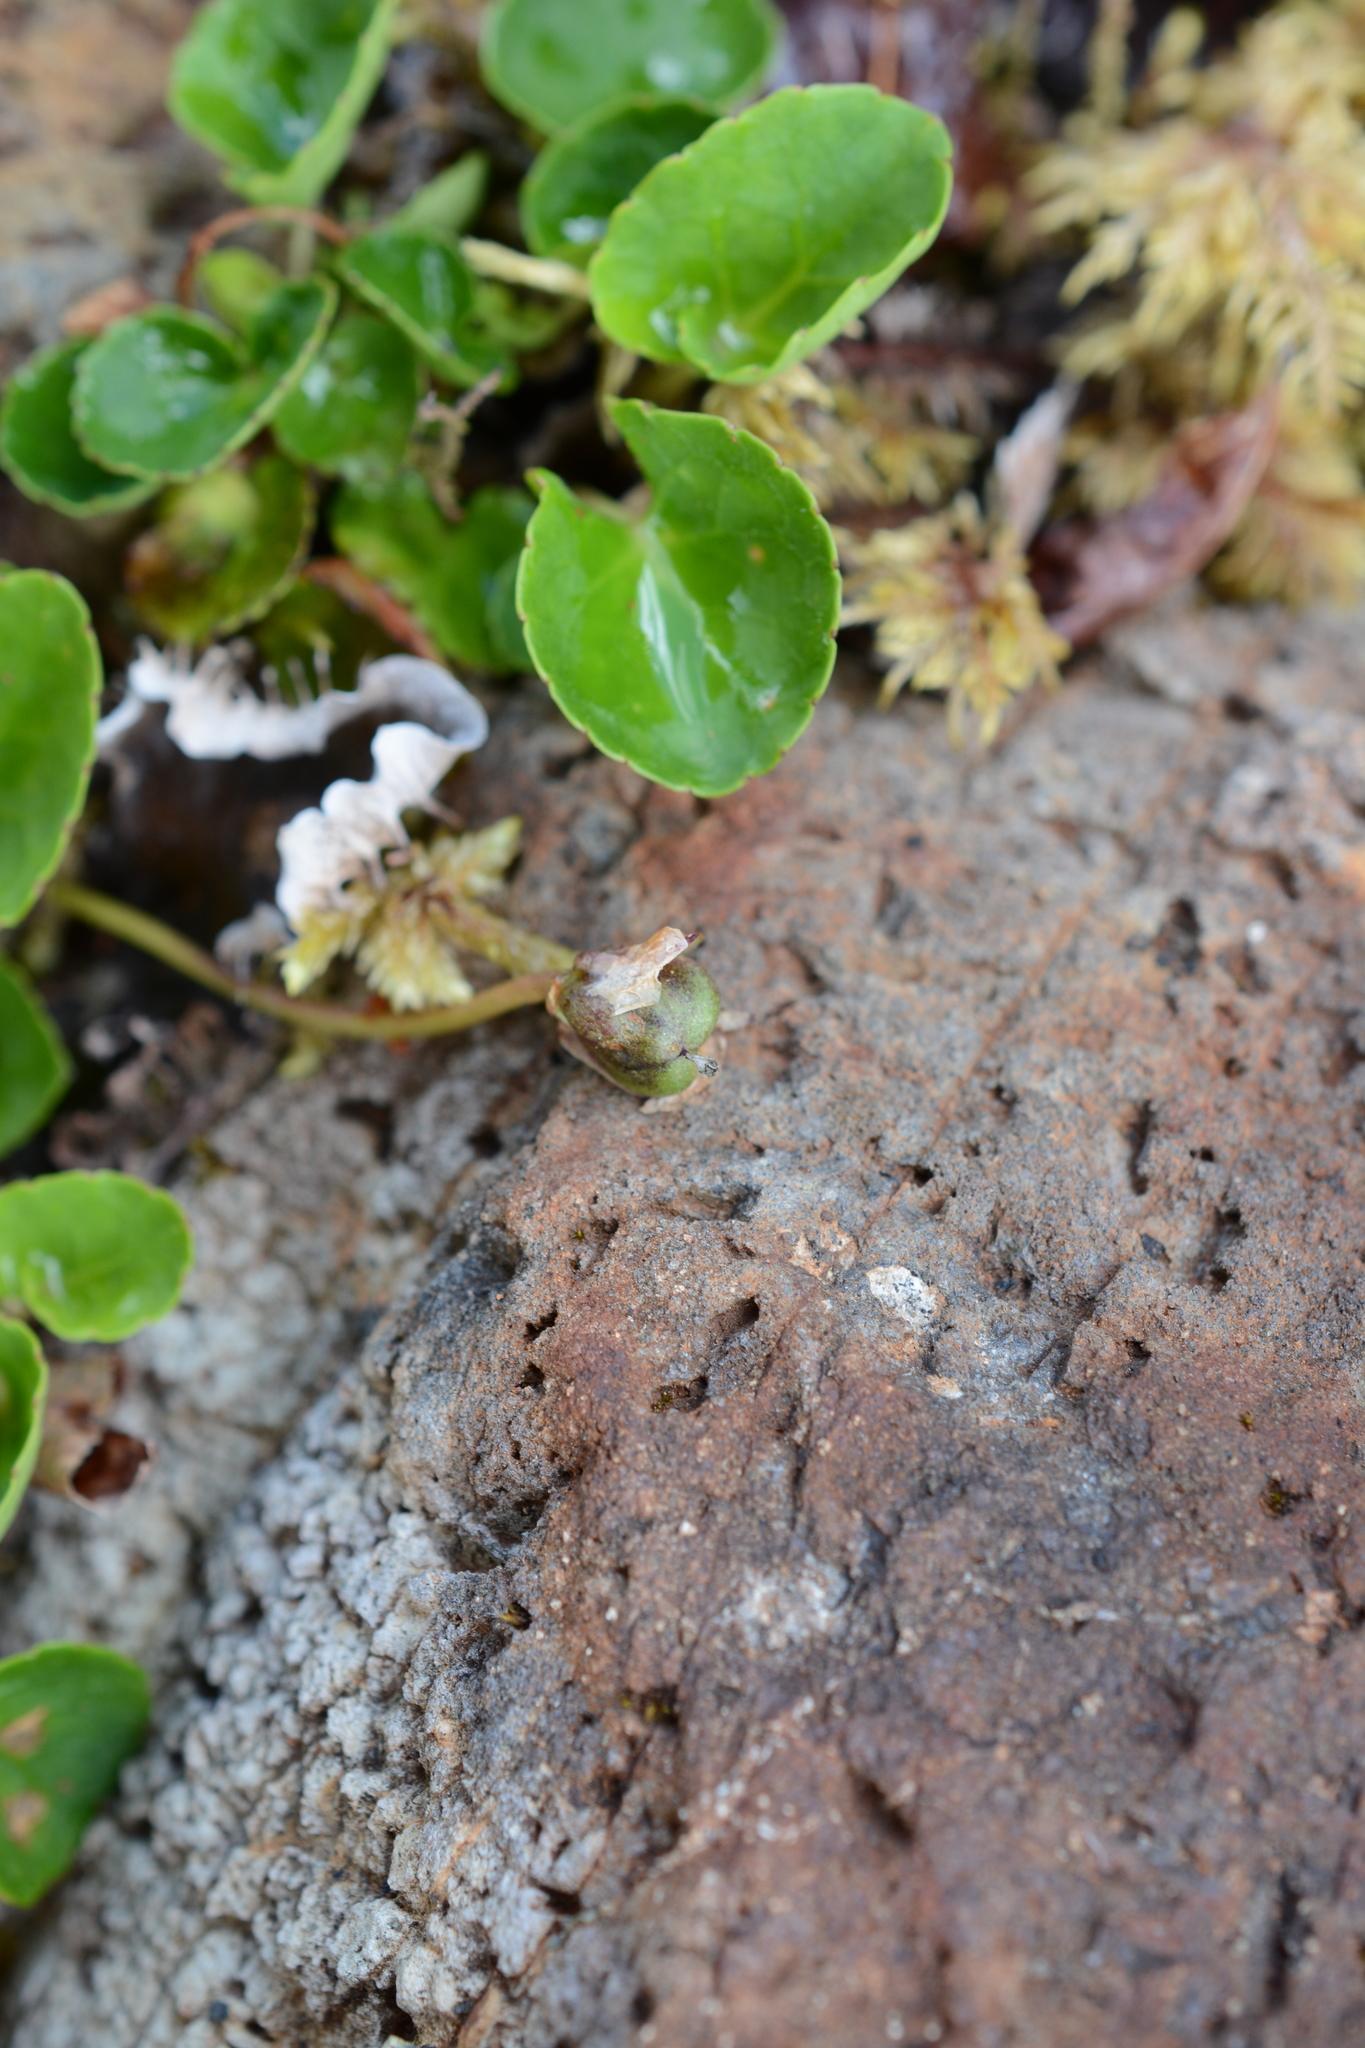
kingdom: Plantae
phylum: Tracheophyta
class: Magnoliopsida
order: Malpighiales
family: Violaceae
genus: Viola
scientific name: Viola sempervirens
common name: Evergreen violet
